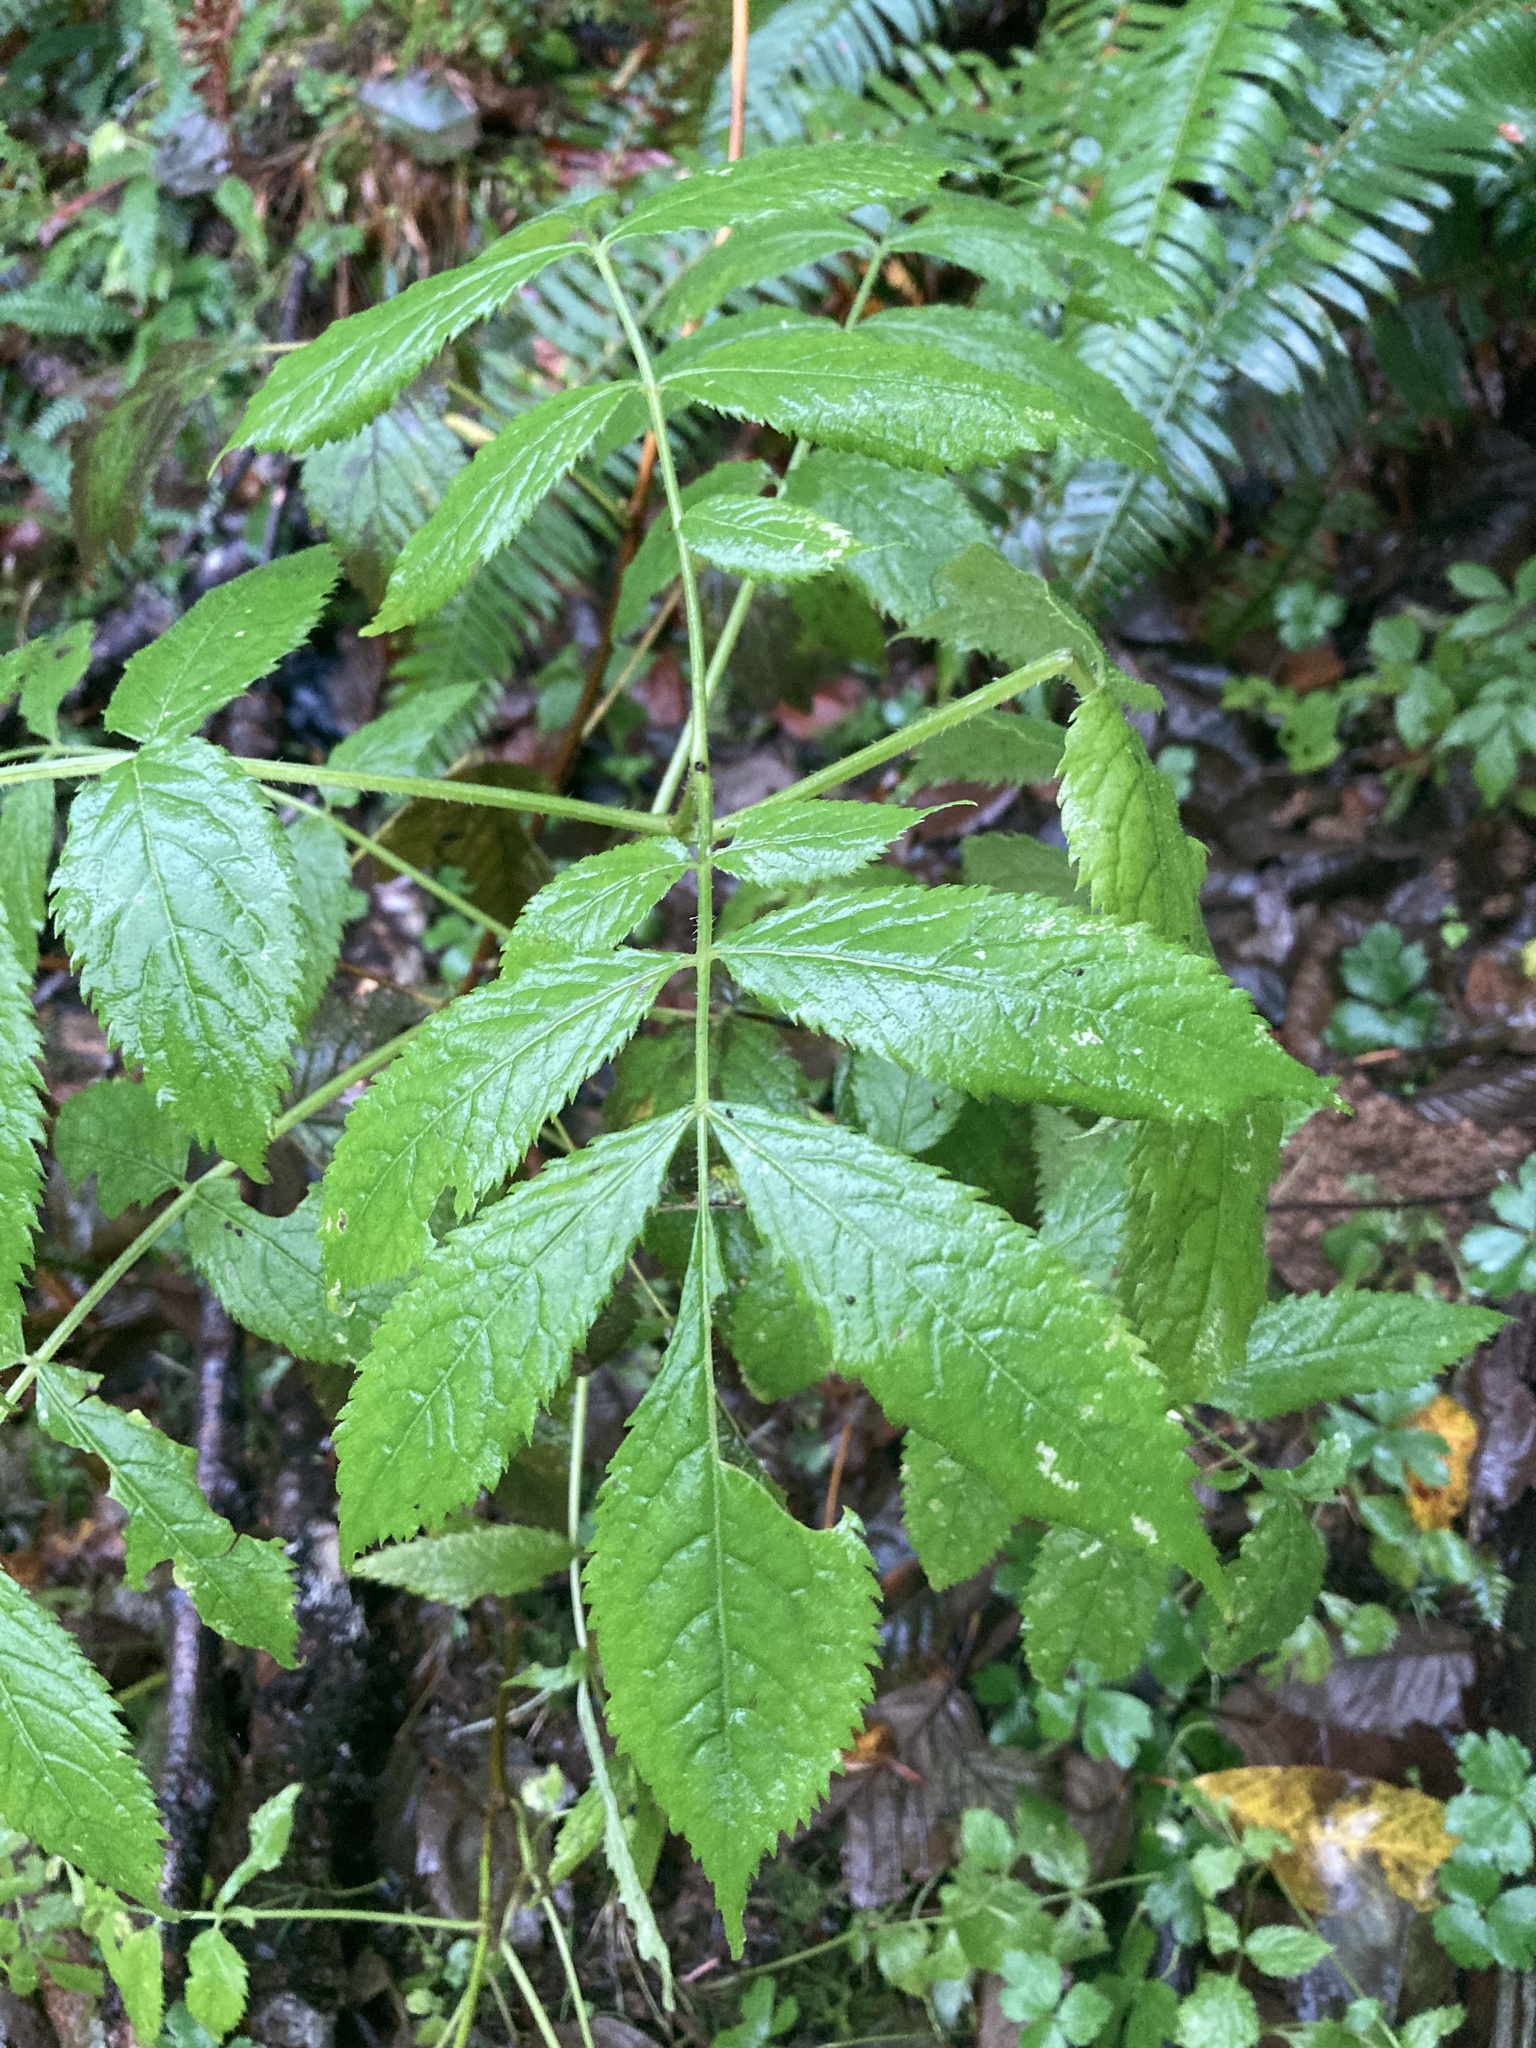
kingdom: Plantae
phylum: Tracheophyta
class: Magnoliopsida
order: Dipsacales
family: Viburnaceae
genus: Sambucus
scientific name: Sambucus racemosa
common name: Red-berried elder
